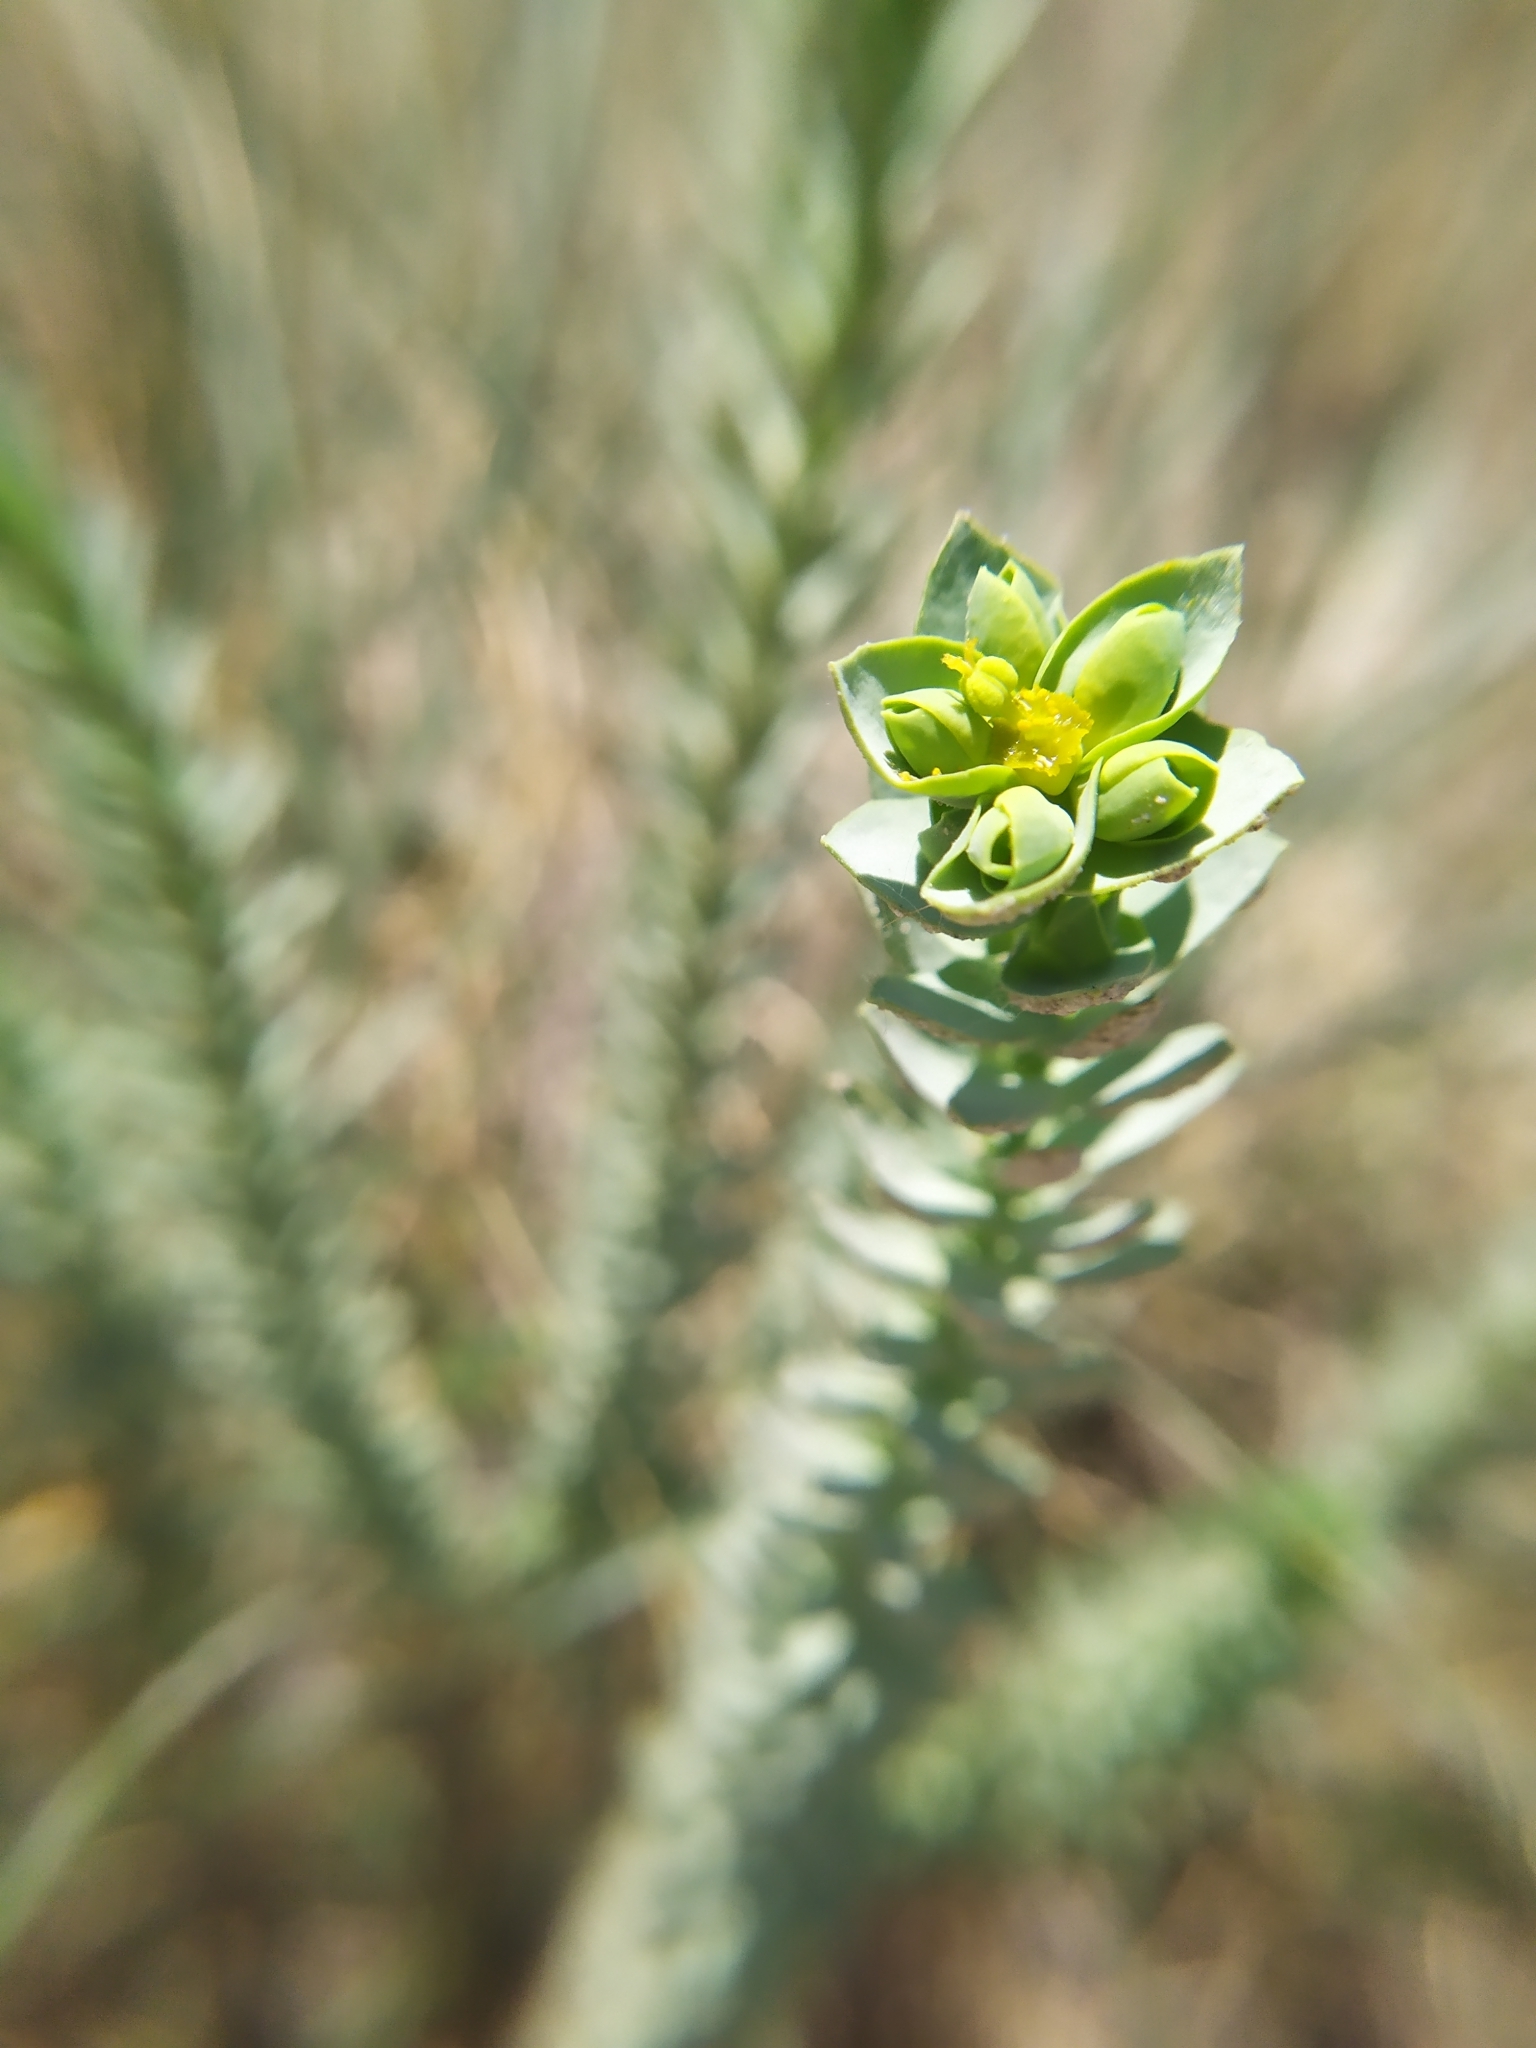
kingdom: Plantae
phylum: Tracheophyta
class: Magnoliopsida
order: Malpighiales
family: Euphorbiaceae
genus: Euphorbia
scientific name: Euphorbia paralias
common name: Sea spurge
